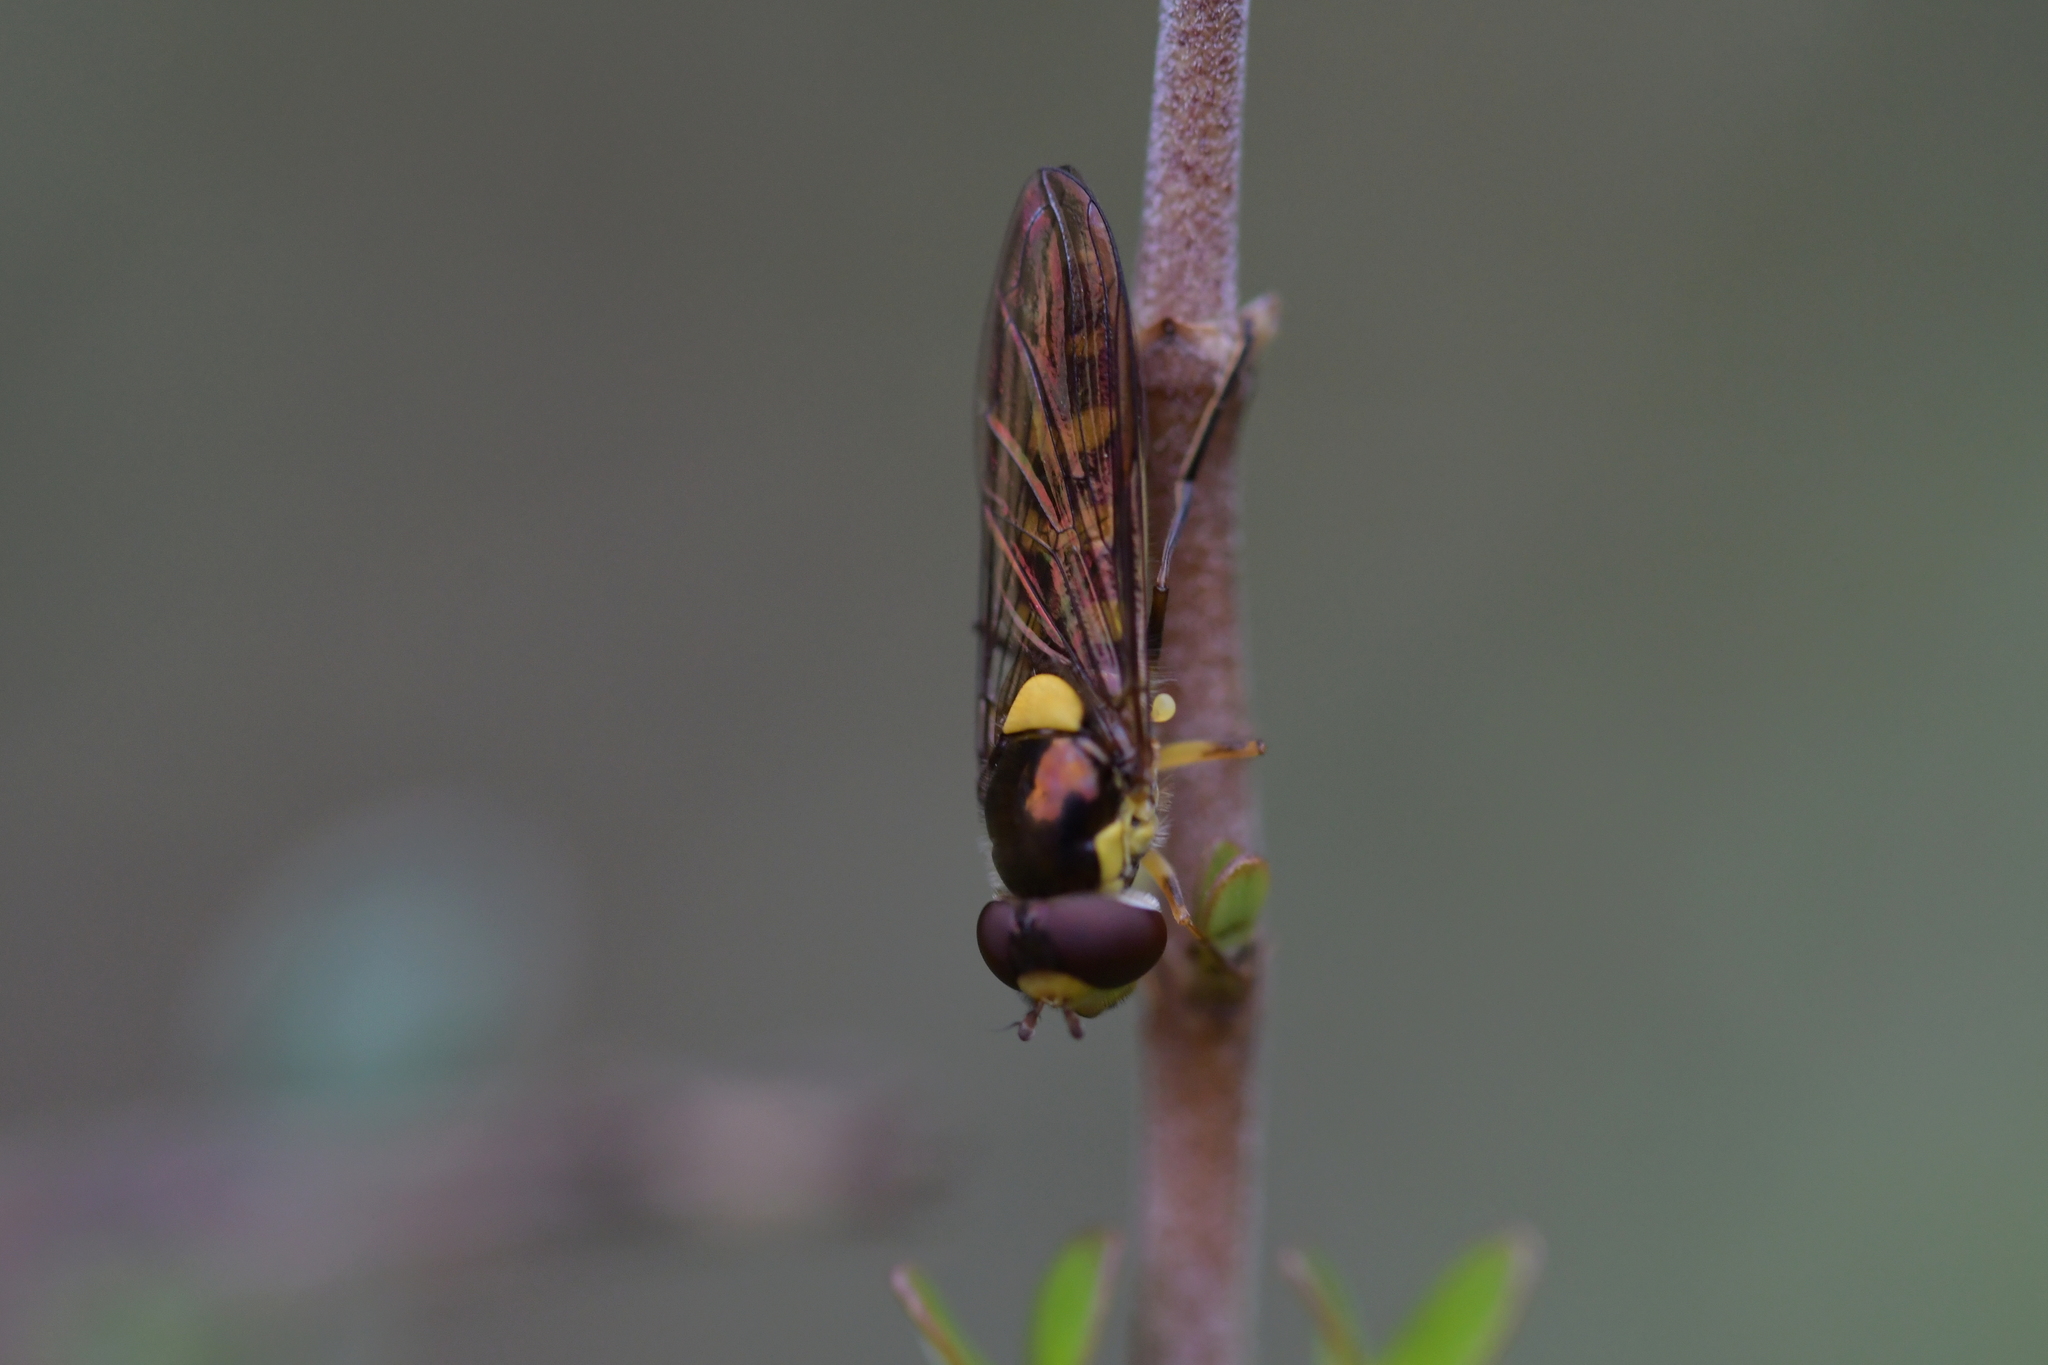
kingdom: Animalia
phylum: Arthropoda
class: Insecta
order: Diptera
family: Syrphidae
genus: Allograpta
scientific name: Allograpta ropala
